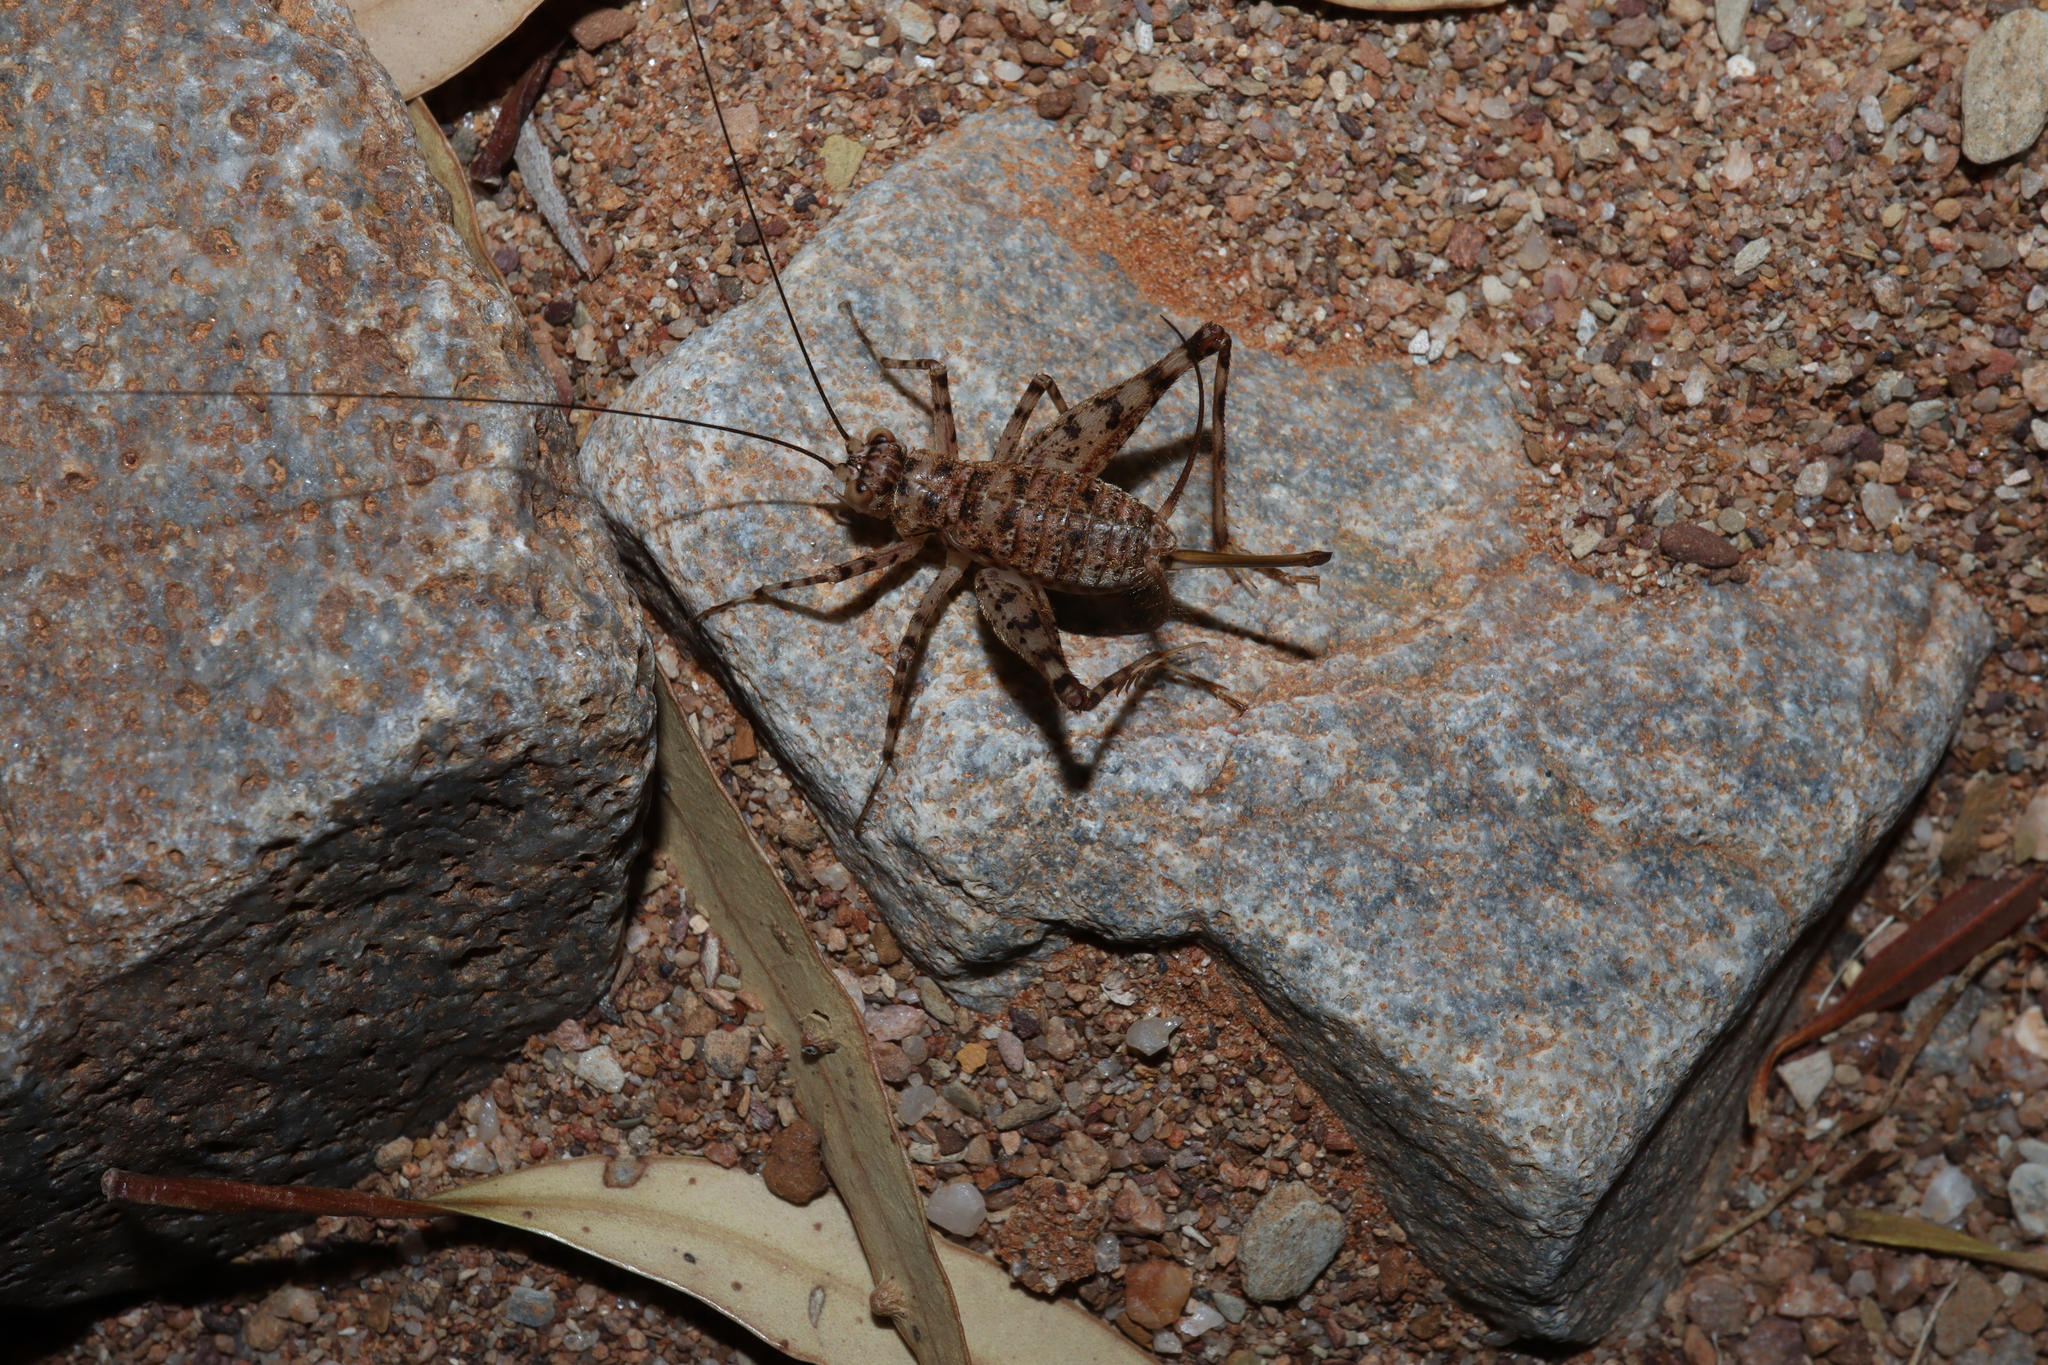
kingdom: Animalia
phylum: Arthropoda
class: Insecta
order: Orthoptera
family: Phalangopsidae
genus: Endacusta
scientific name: Endacusta pindana
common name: Spider cricket
